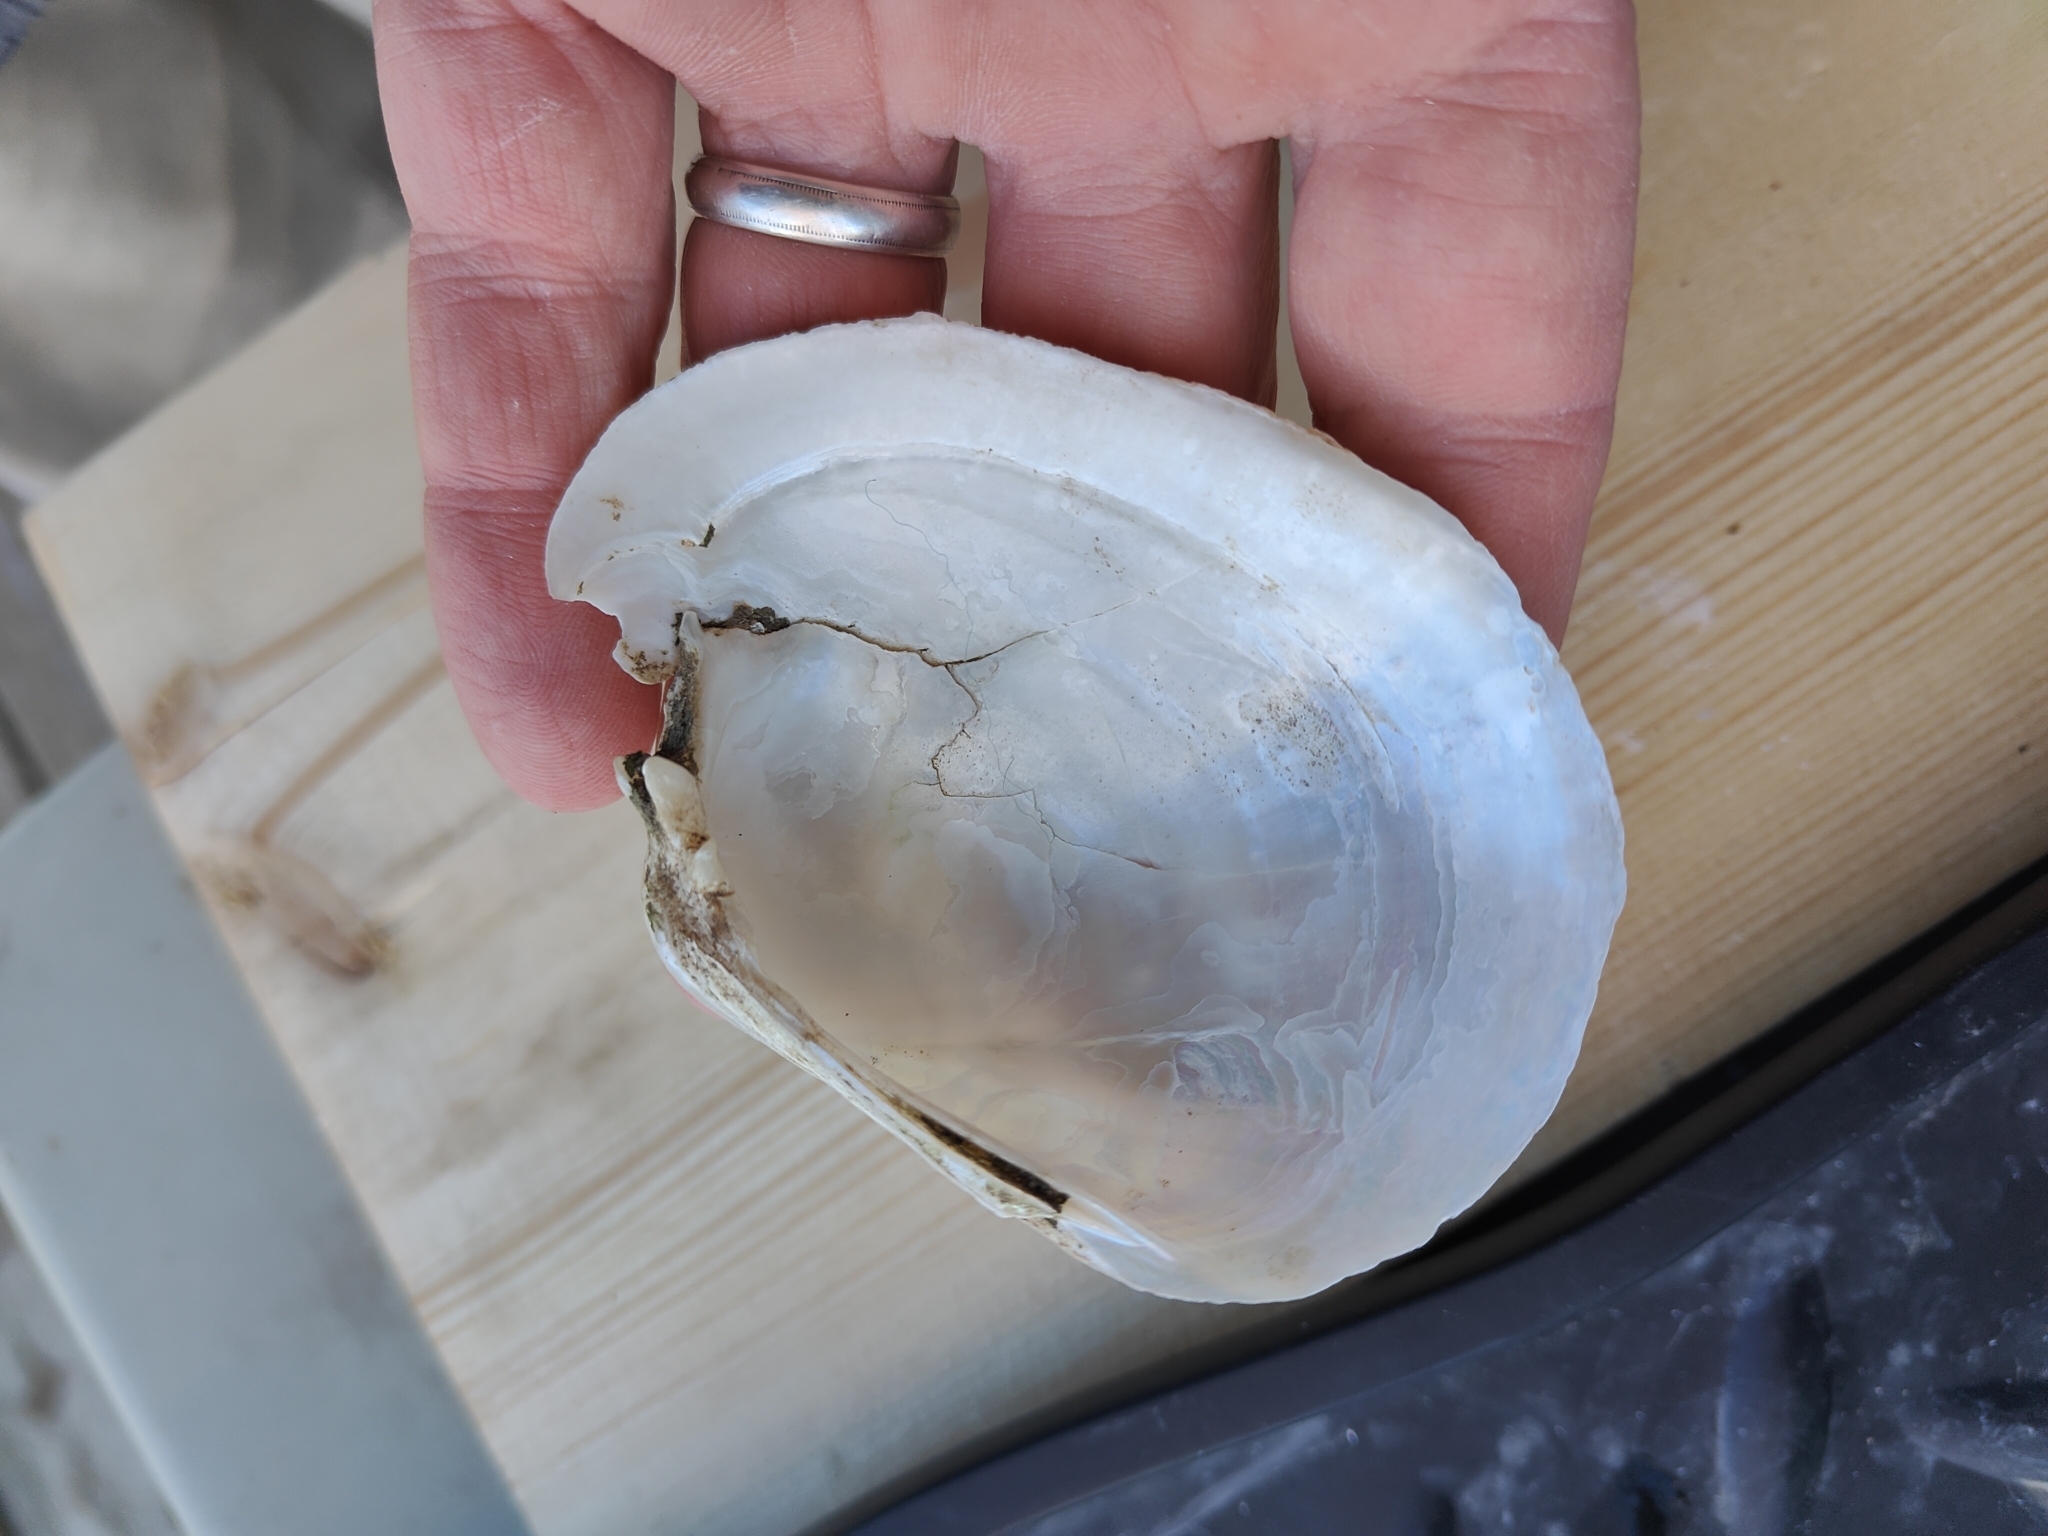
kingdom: Animalia
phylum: Mollusca
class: Bivalvia
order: Unionida
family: Unionidae
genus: Lampsilis
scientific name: Lampsilis cardium
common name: Plain pocketbook
